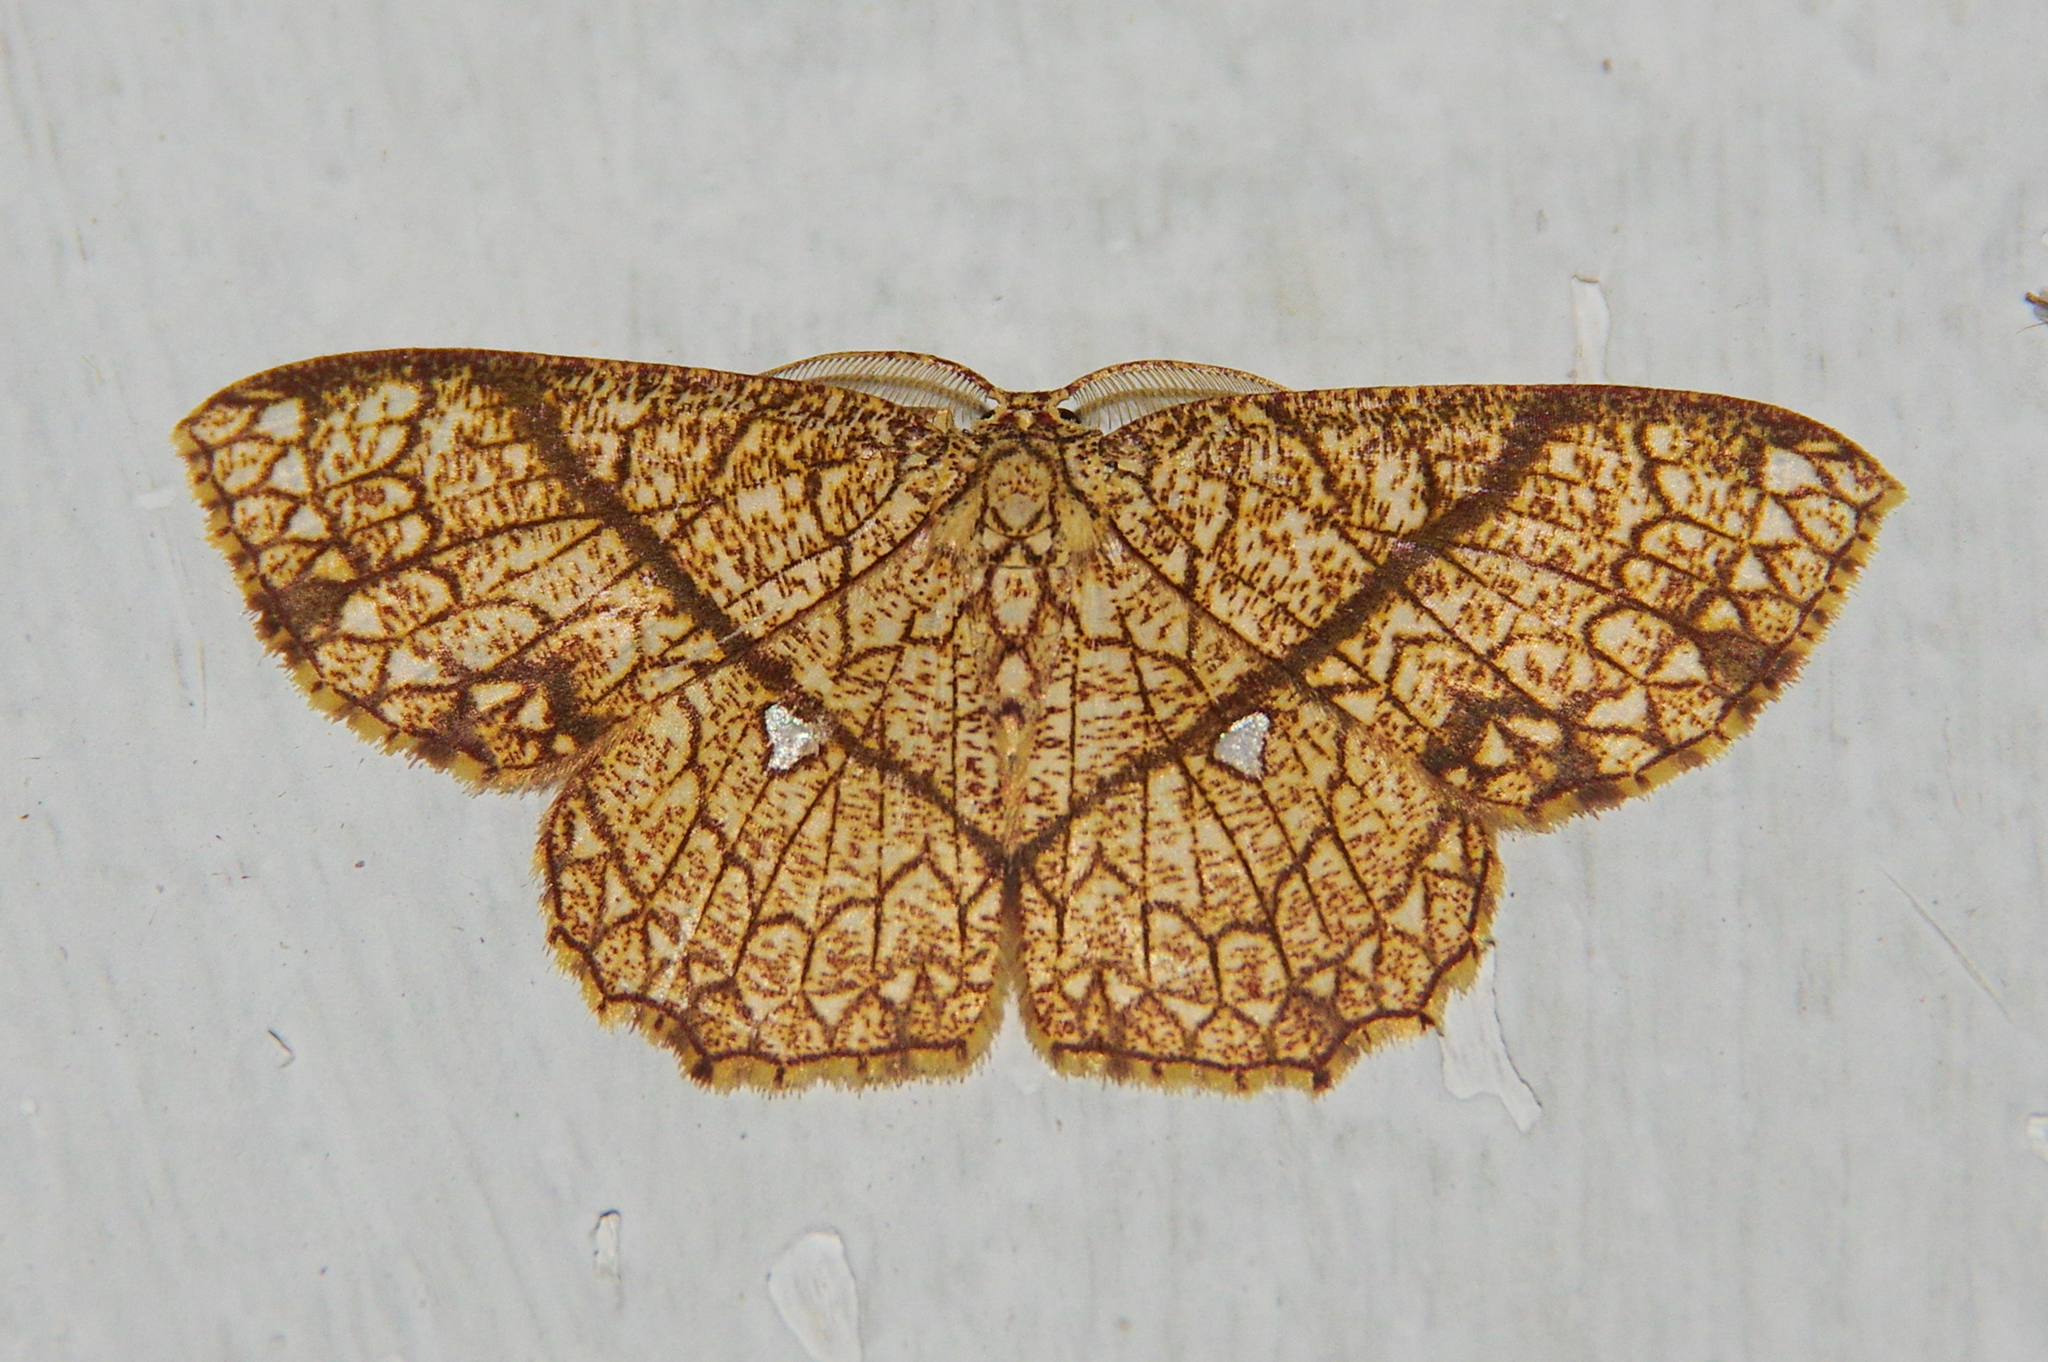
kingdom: Animalia
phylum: Arthropoda
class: Insecta
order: Lepidoptera
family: Geometridae
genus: Cyclophora
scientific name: Cyclophora insigniata
